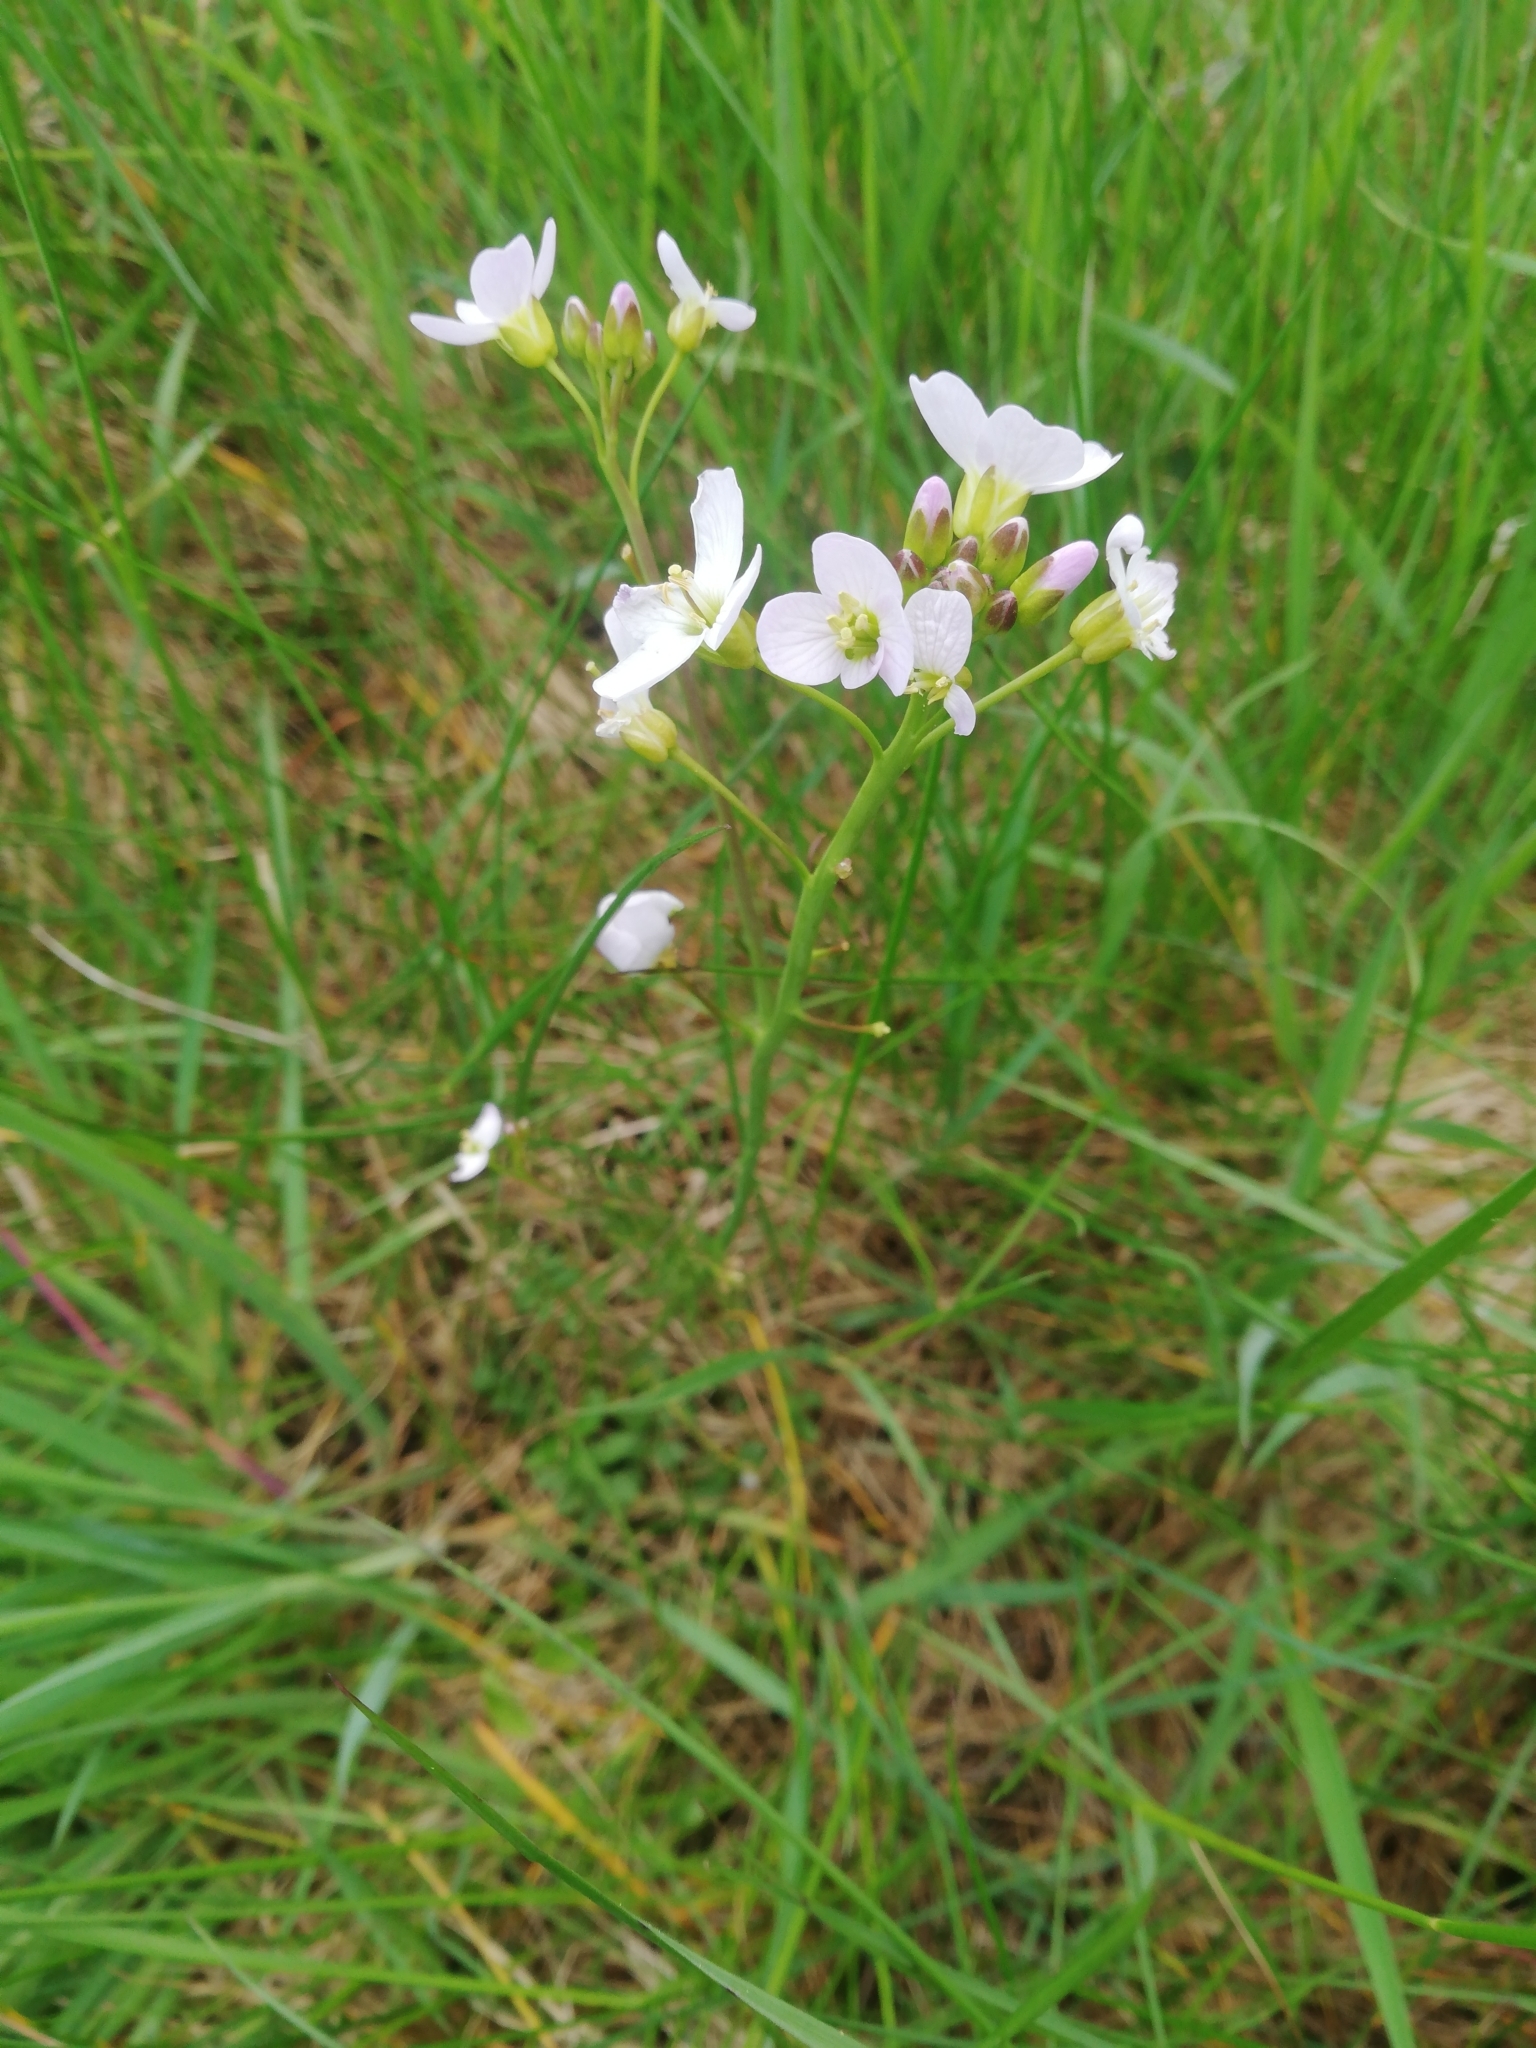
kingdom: Plantae
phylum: Tracheophyta
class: Magnoliopsida
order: Brassicales
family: Brassicaceae
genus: Cardamine
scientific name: Cardamine pratensis
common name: Cuckoo flower
